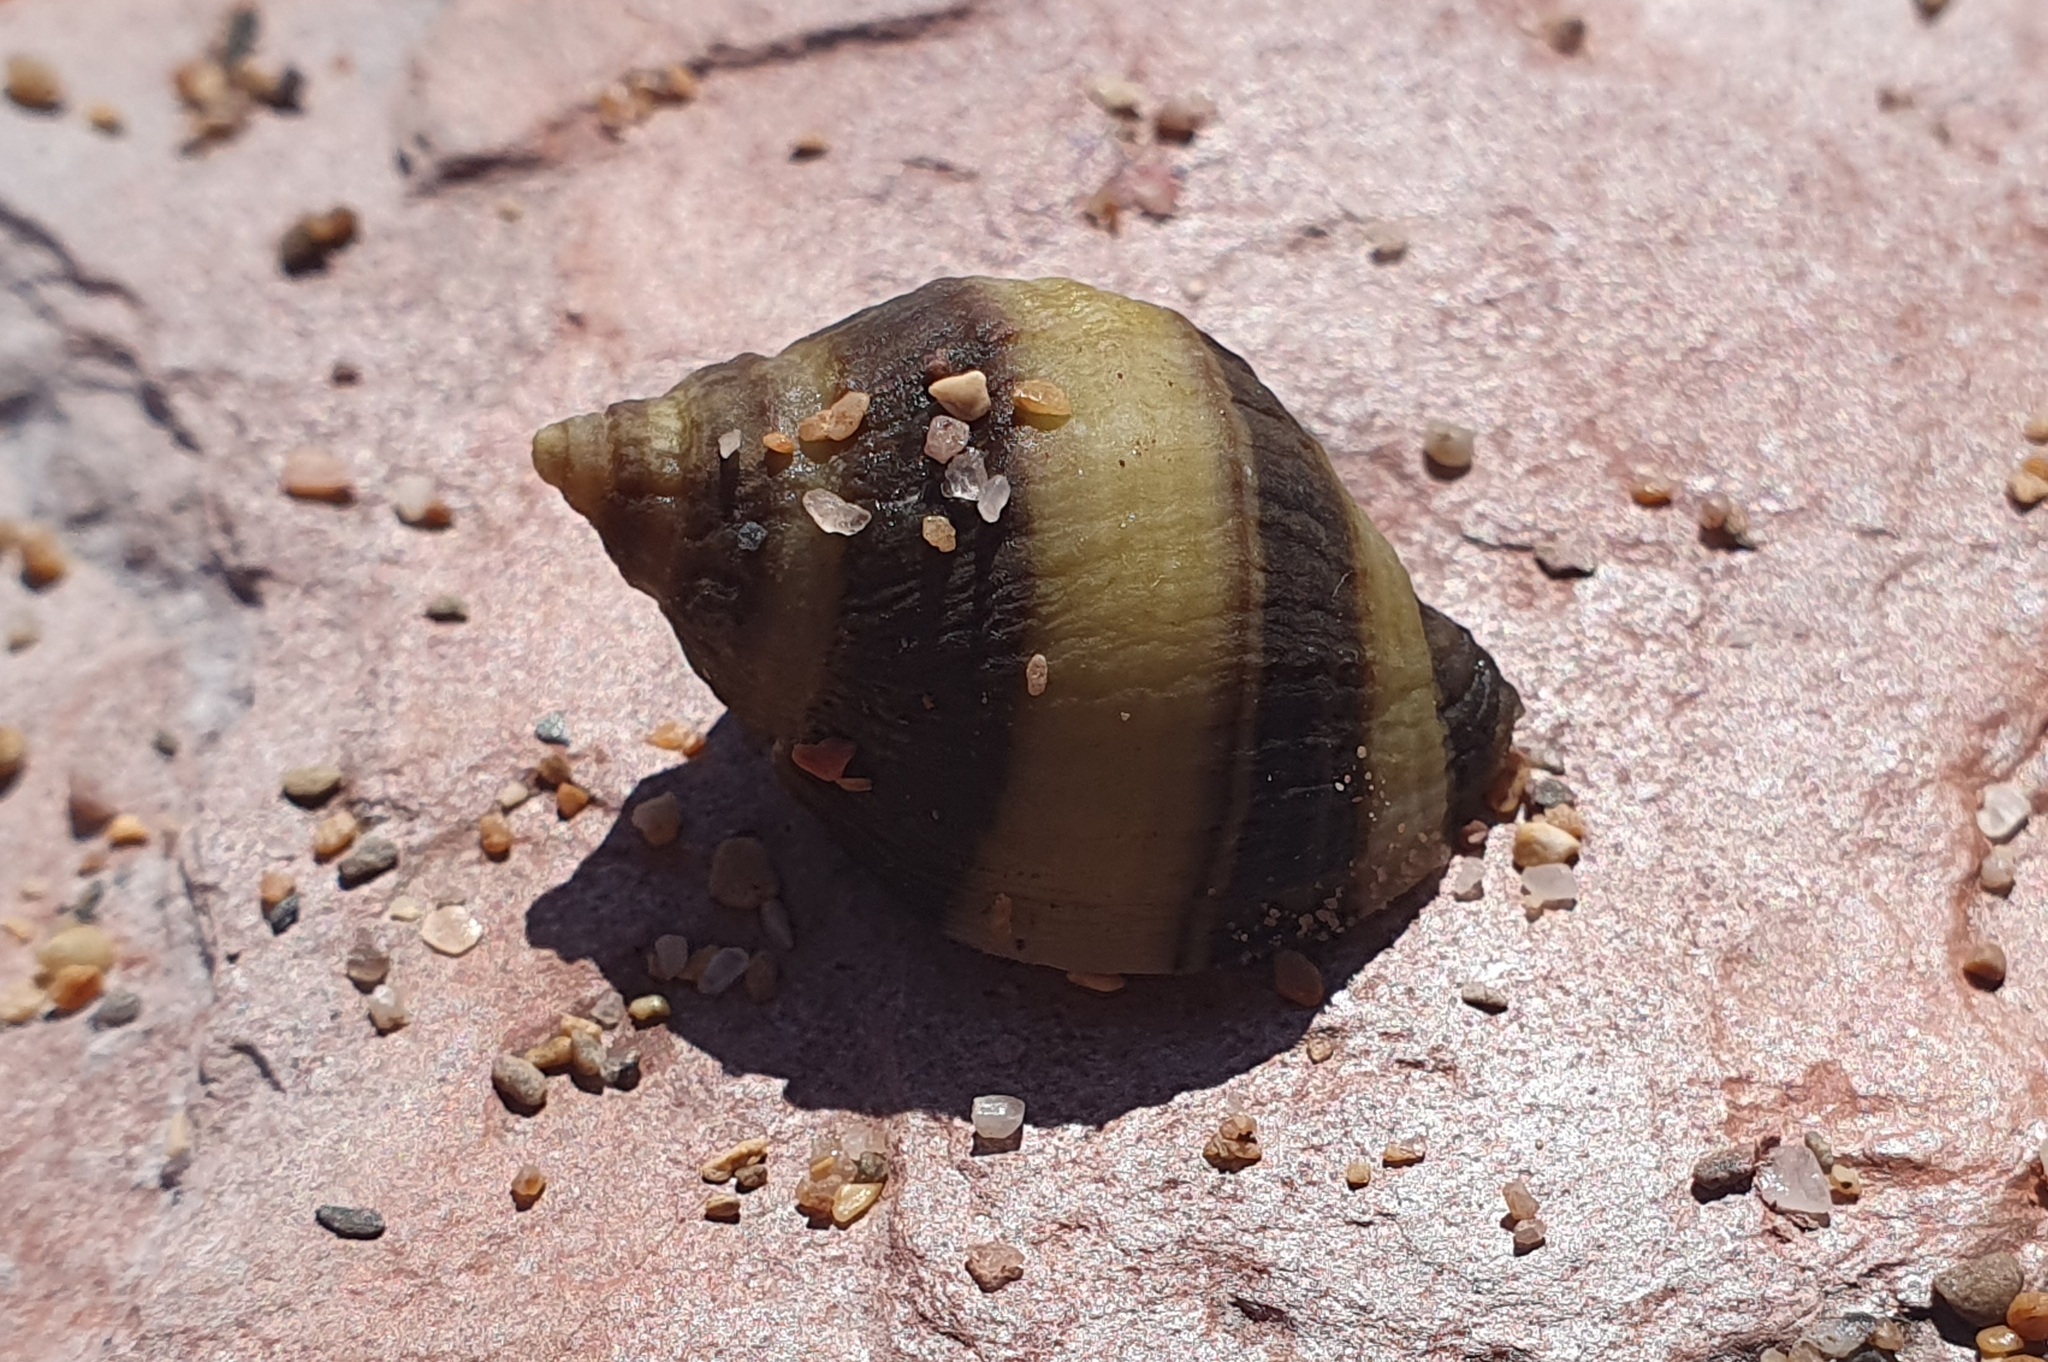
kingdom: Animalia
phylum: Mollusca
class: Gastropoda
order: Neogastropoda
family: Muricidae
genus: Nucella
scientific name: Nucella lapillus
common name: Dog whelk
